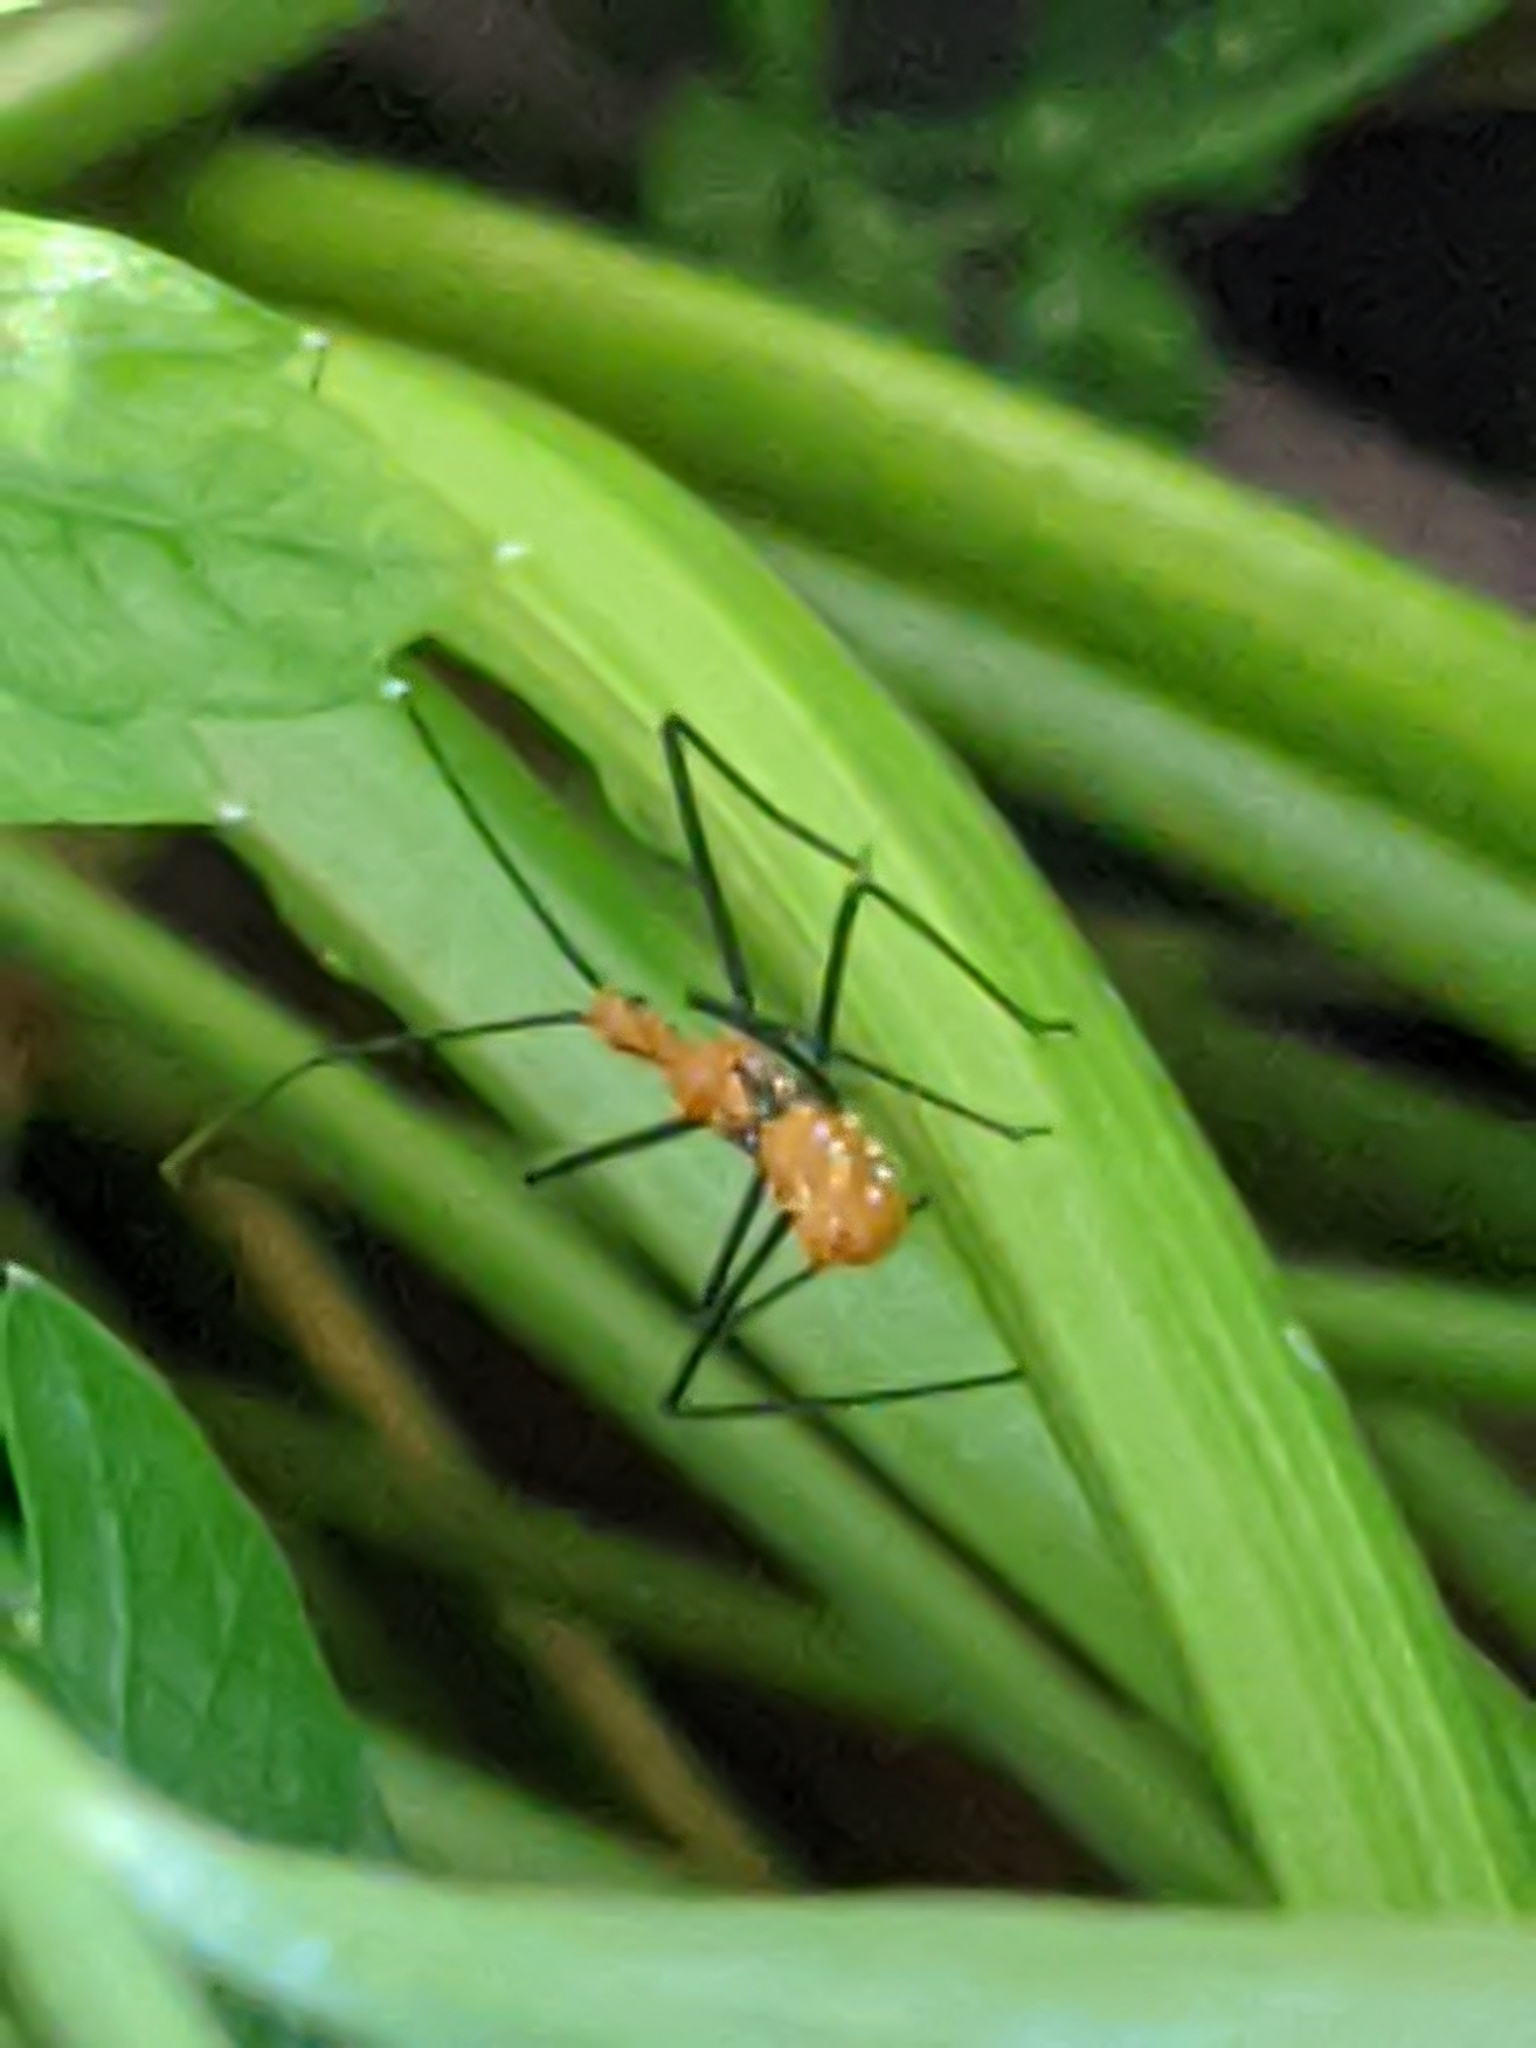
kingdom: Animalia
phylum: Arthropoda
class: Insecta
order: Hemiptera
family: Reduviidae
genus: Zelus
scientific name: Zelus longipes
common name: Milkweed assassin bug
